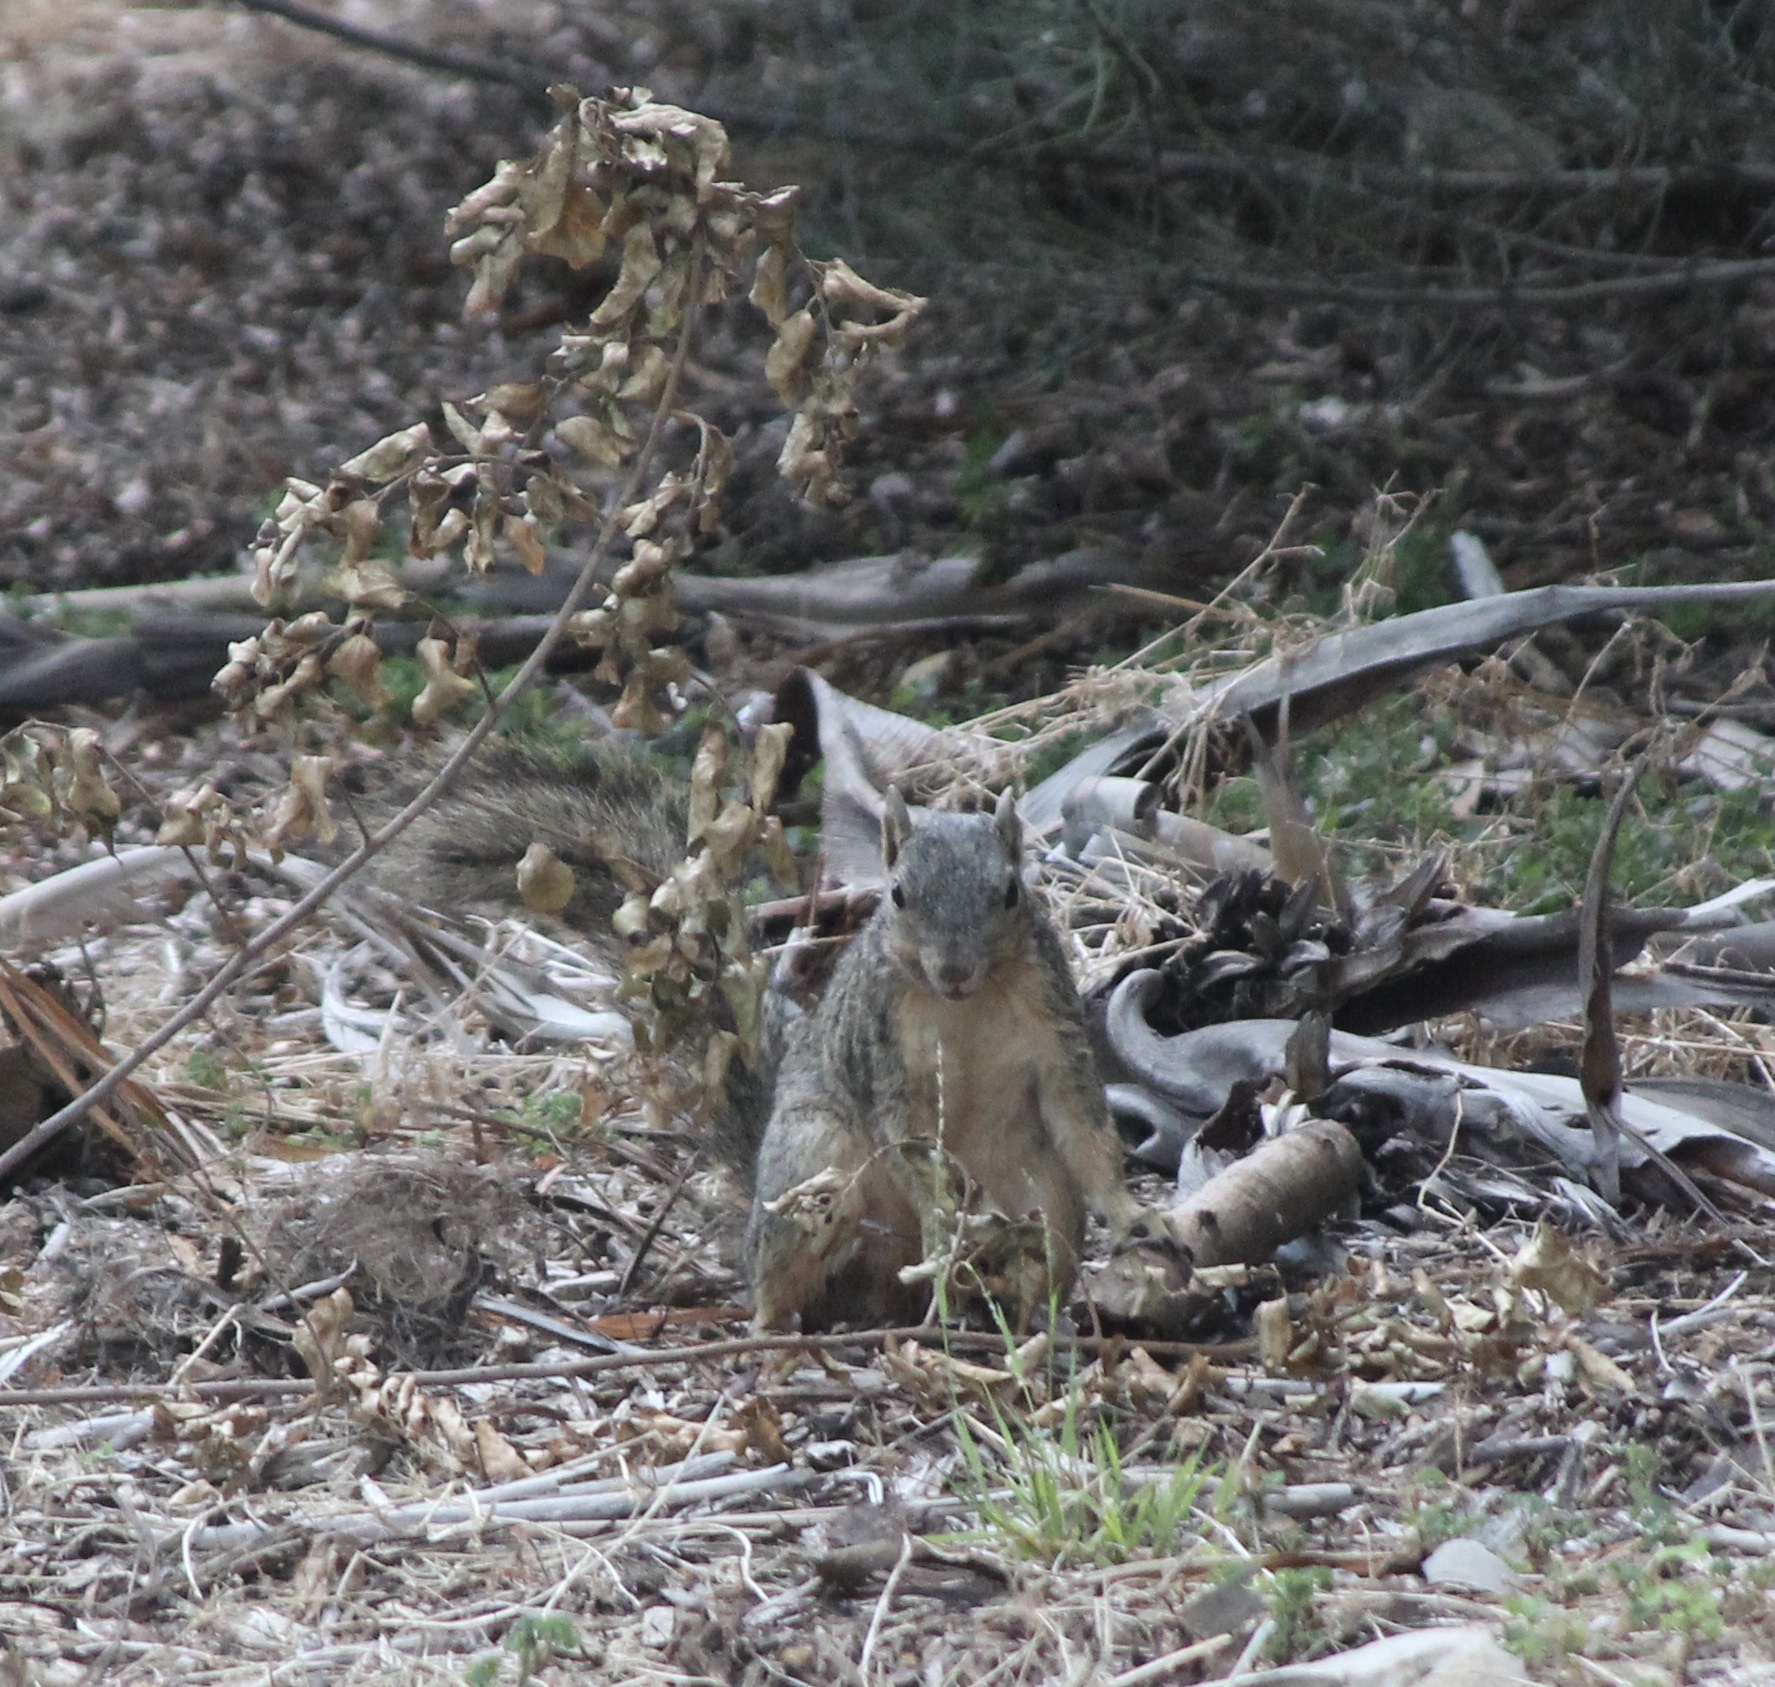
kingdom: Animalia
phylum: Chordata
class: Mammalia
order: Rodentia
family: Sciuridae
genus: Sciurus
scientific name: Sciurus niger
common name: Fox squirrel
